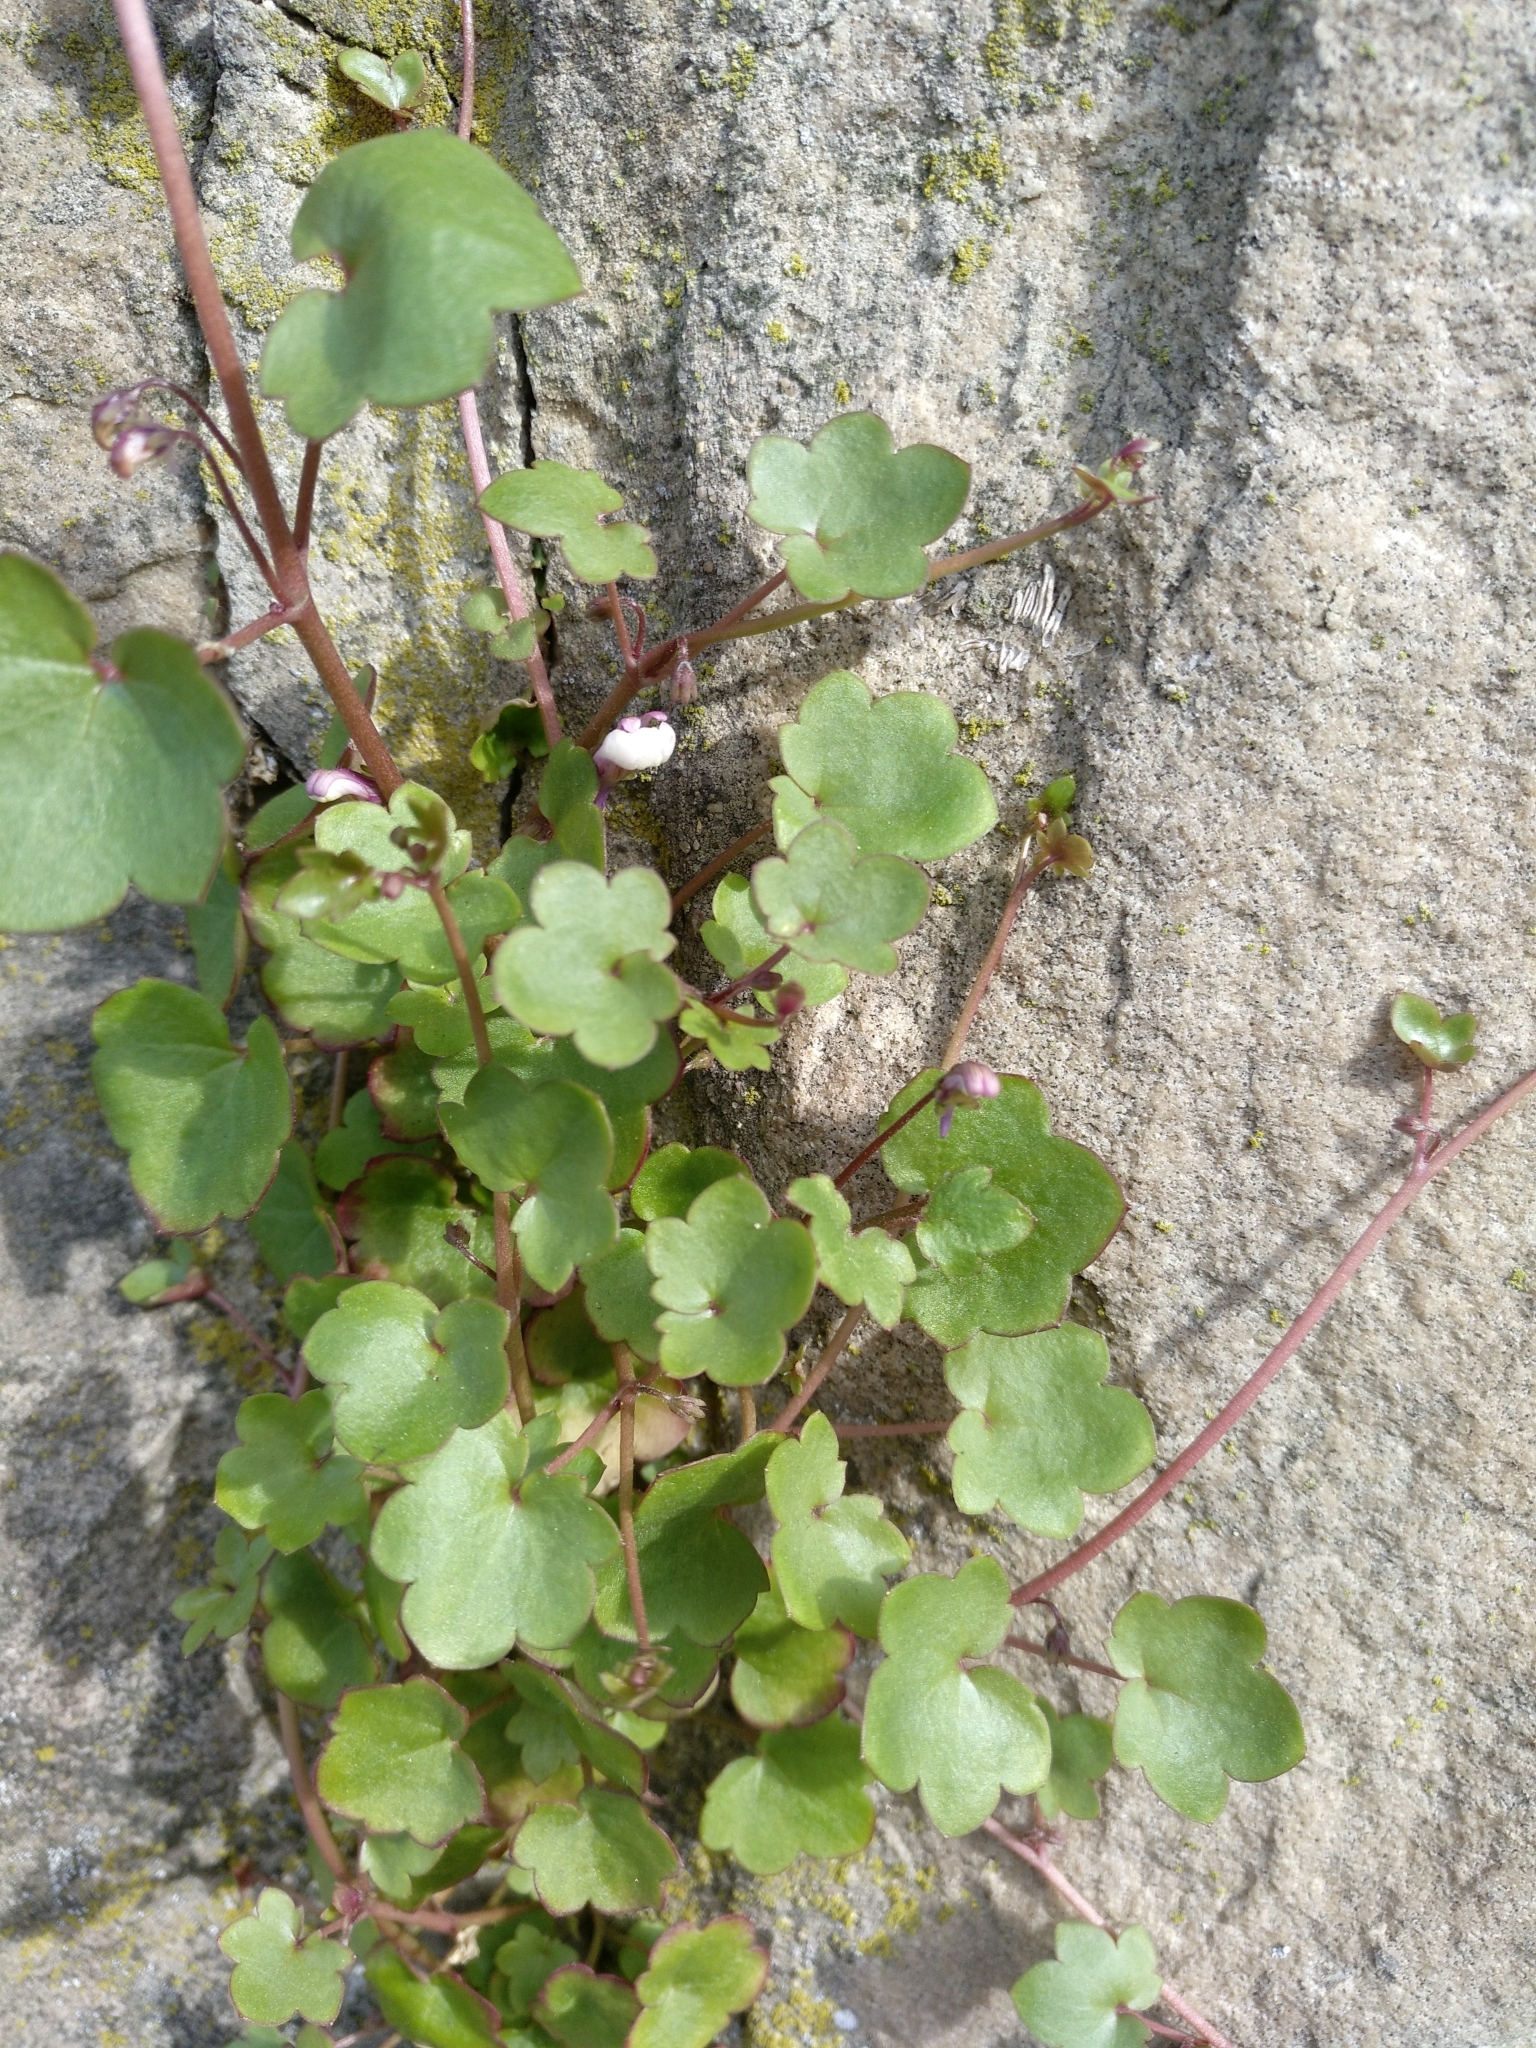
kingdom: Plantae
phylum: Tracheophyta
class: Magnoliopsida
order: Lamiales
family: Plantaginaceae
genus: Cymbalaria
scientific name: Cymbalaria muralis
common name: Ivy-leaved toadflax
